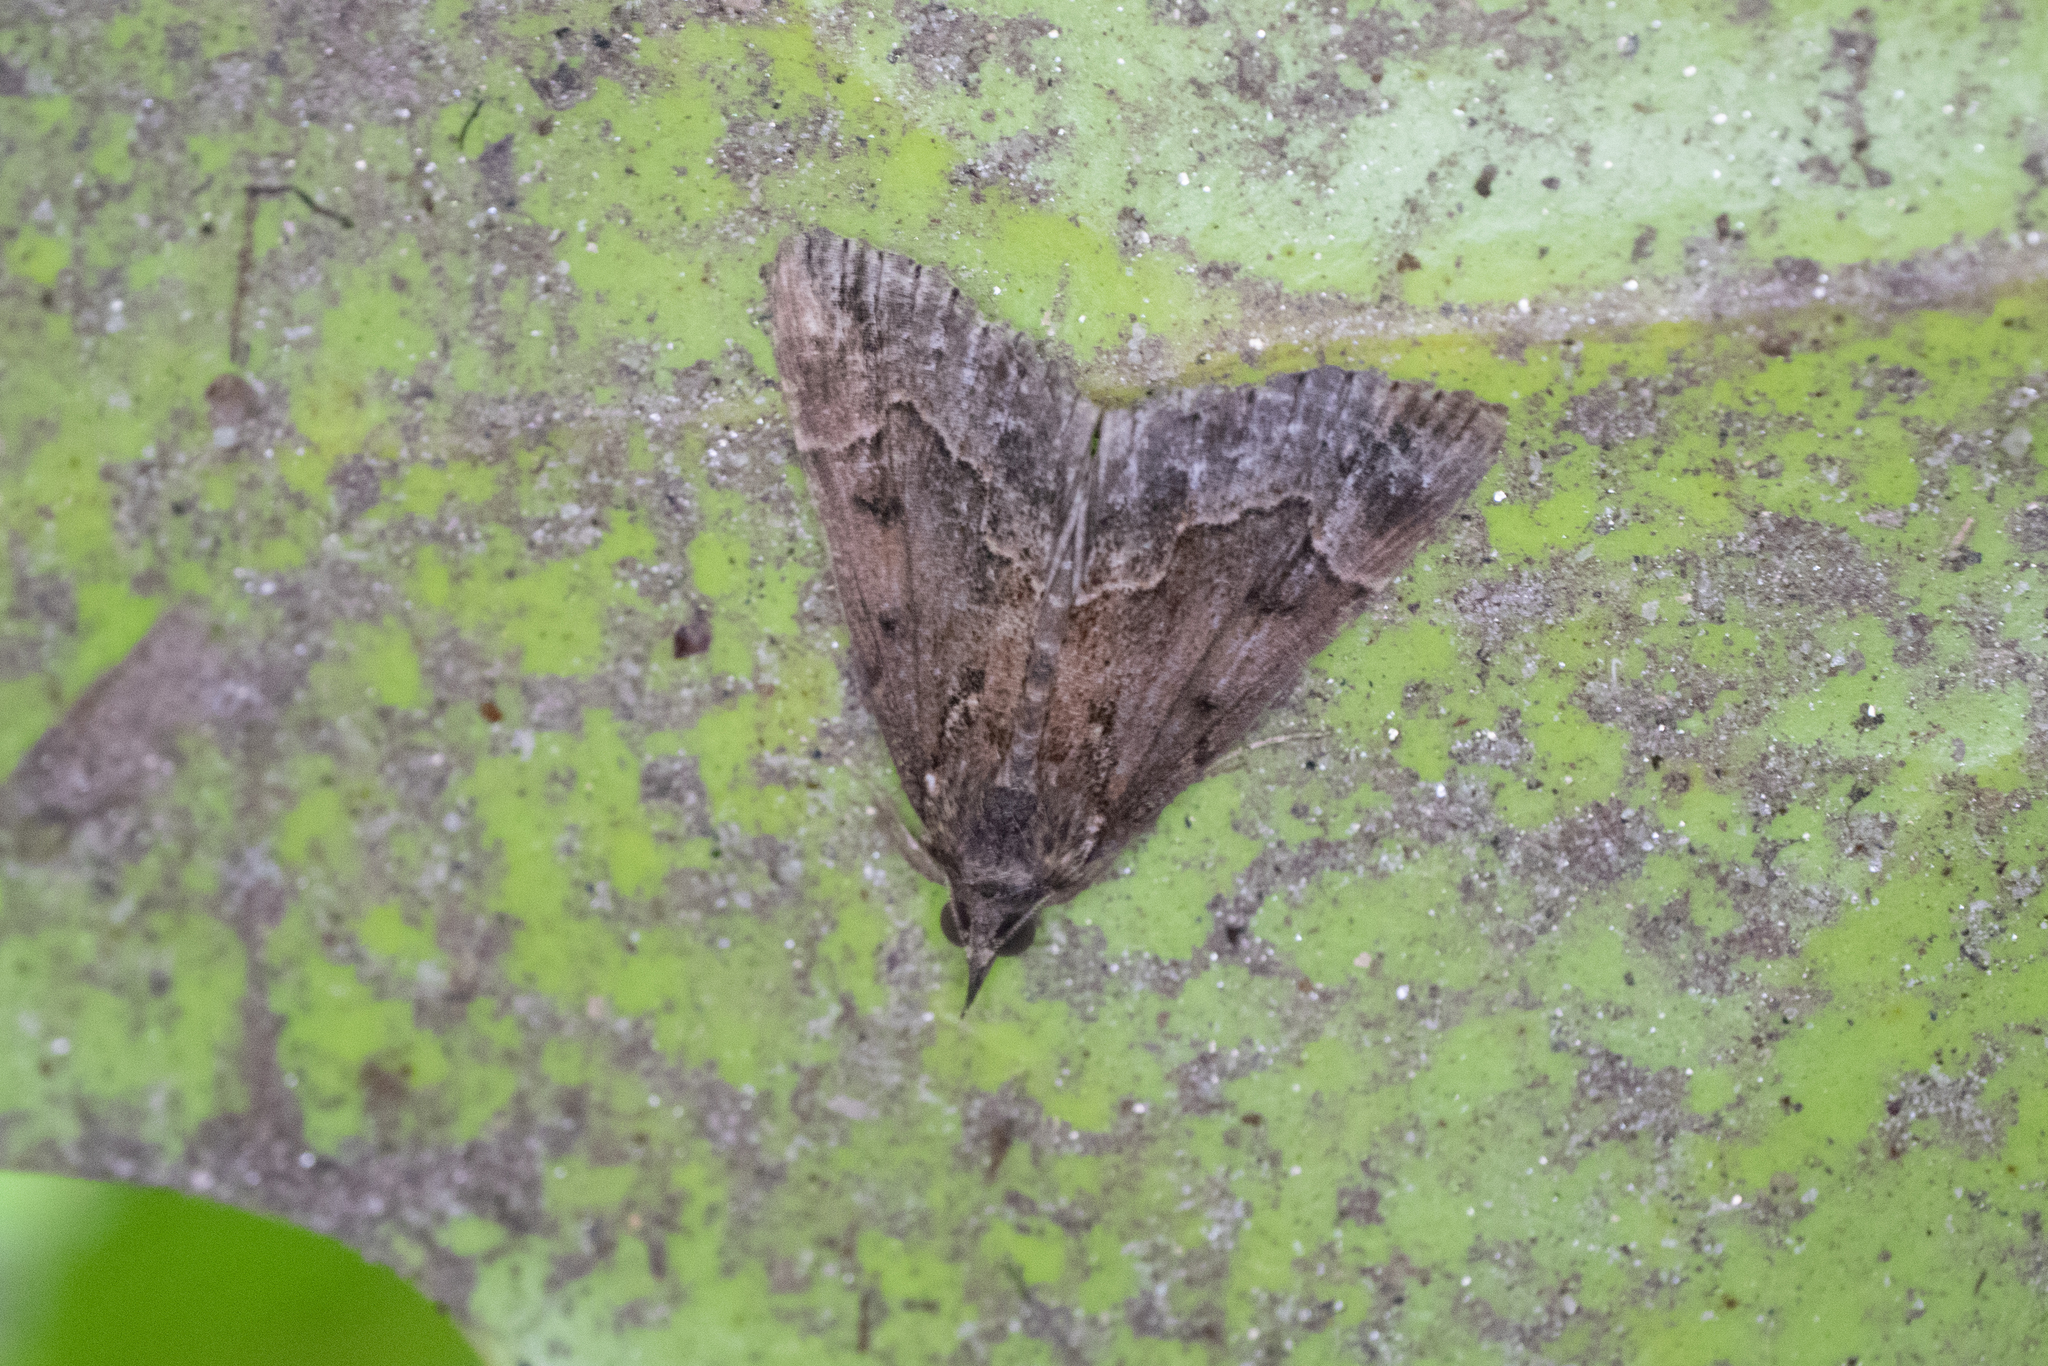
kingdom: Animalia
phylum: Arthropoda
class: Insecta
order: Lepidoptera
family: Erebidae
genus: Hypena
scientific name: Hypena palparia
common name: Mottled bomolocha moth
